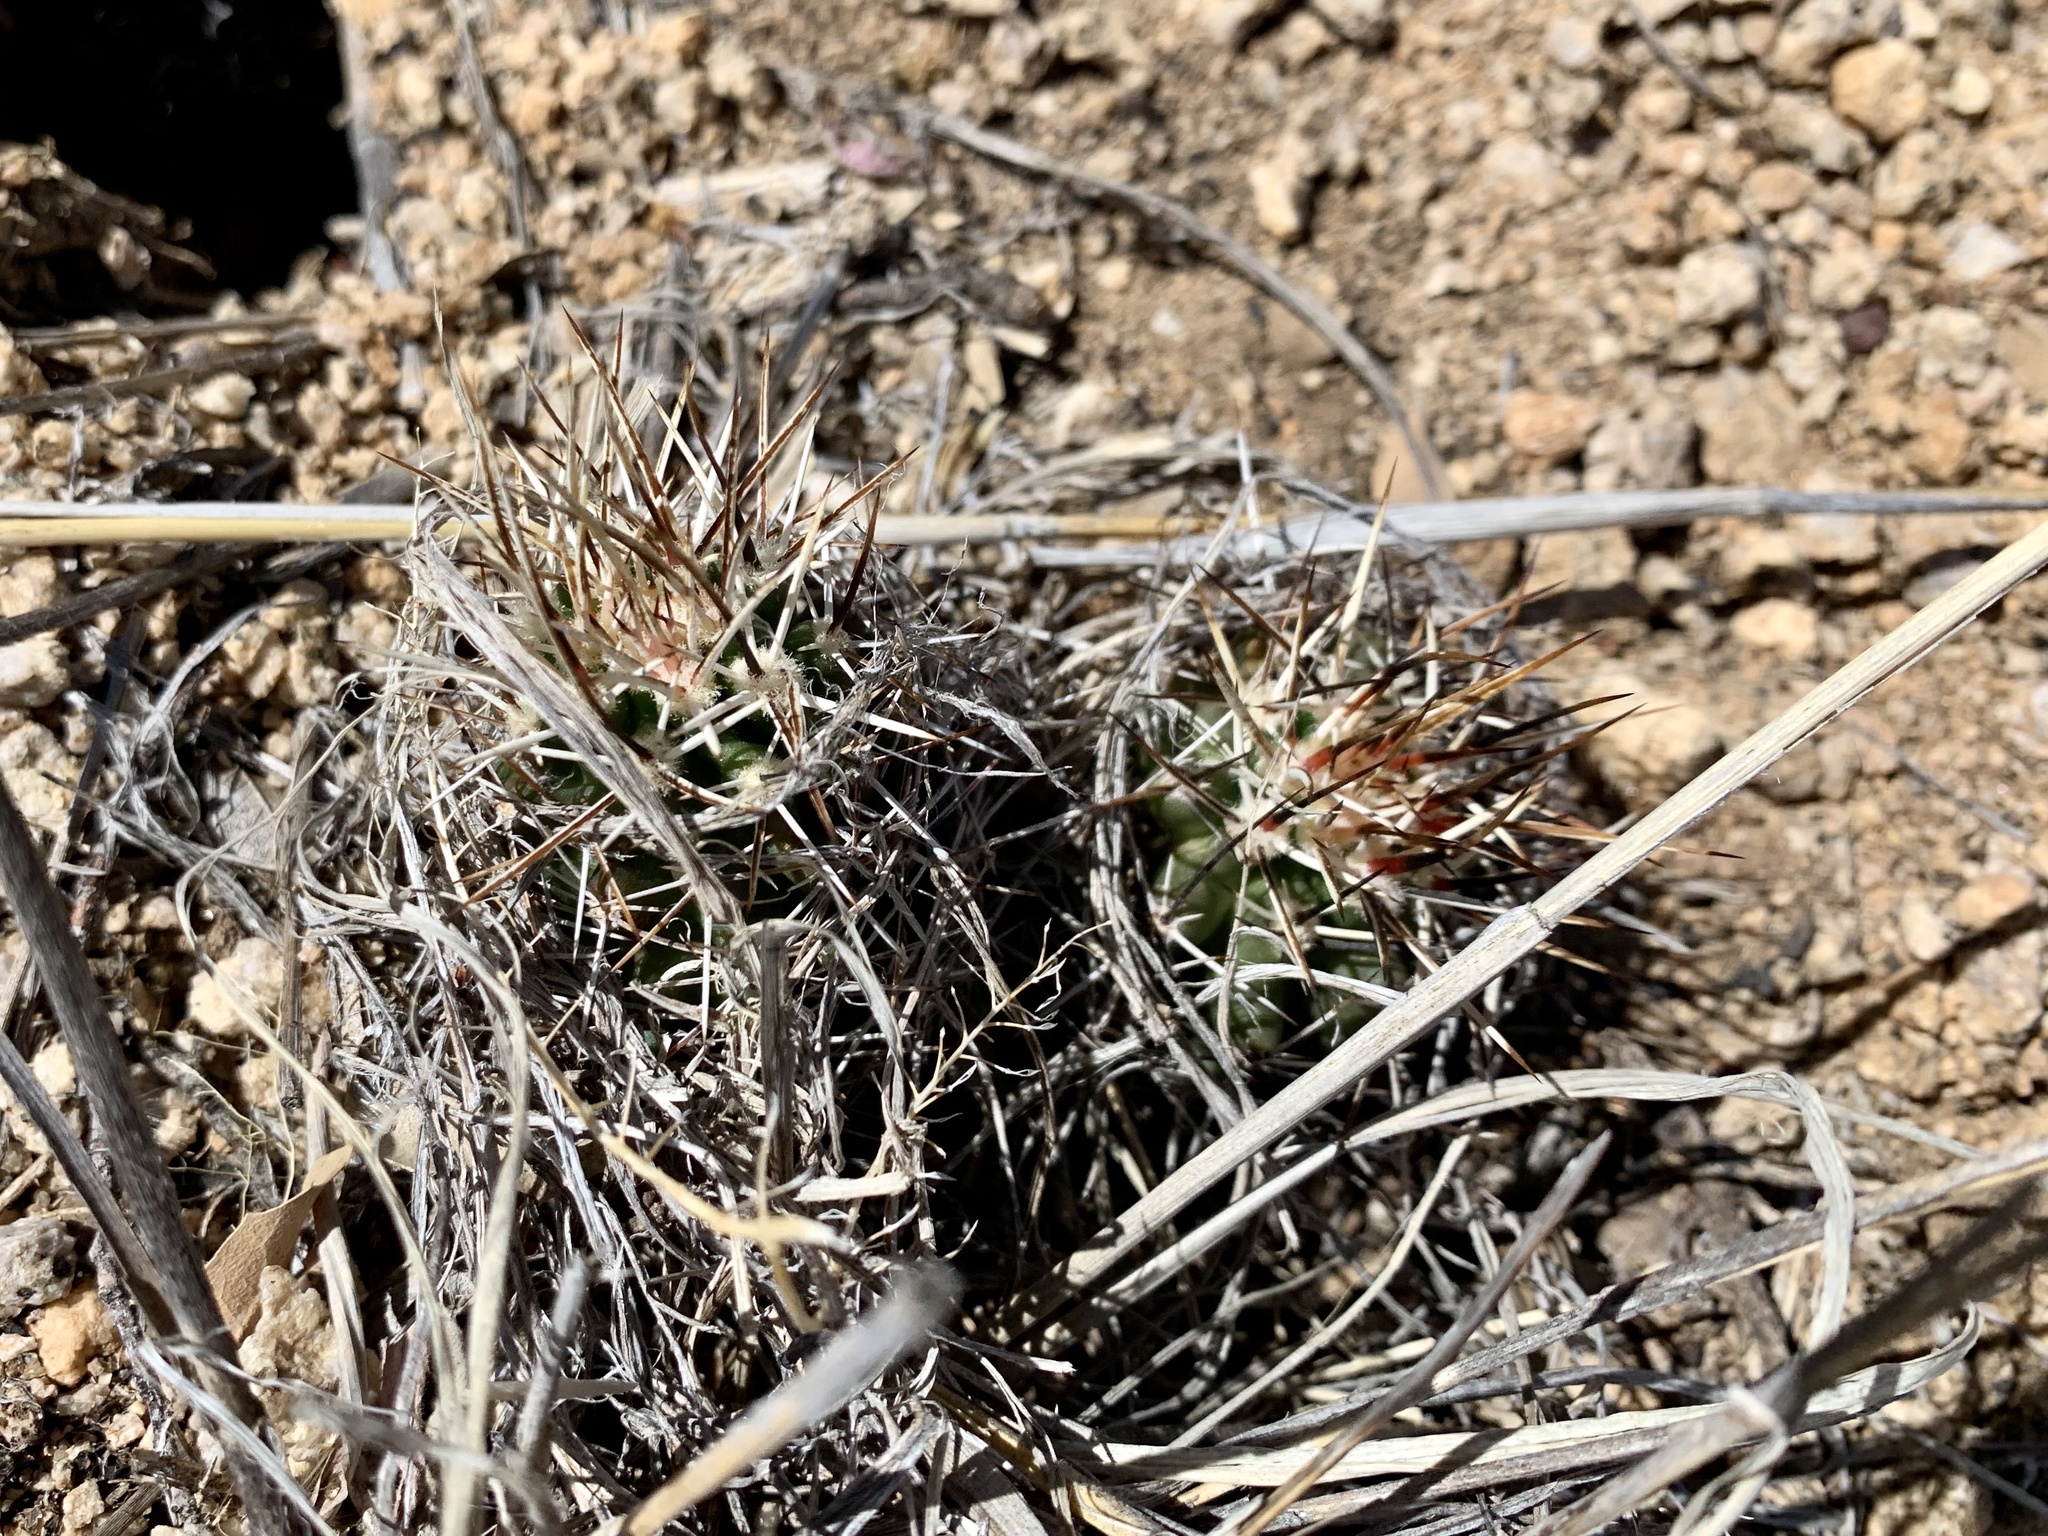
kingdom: Plantae
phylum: Tracheophyta
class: Magnoliopsida
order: Caryophyllales
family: Cactaceae
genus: Echinocereus
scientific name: Echinocereus fendleri
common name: Fendler's hedgehog cactus
